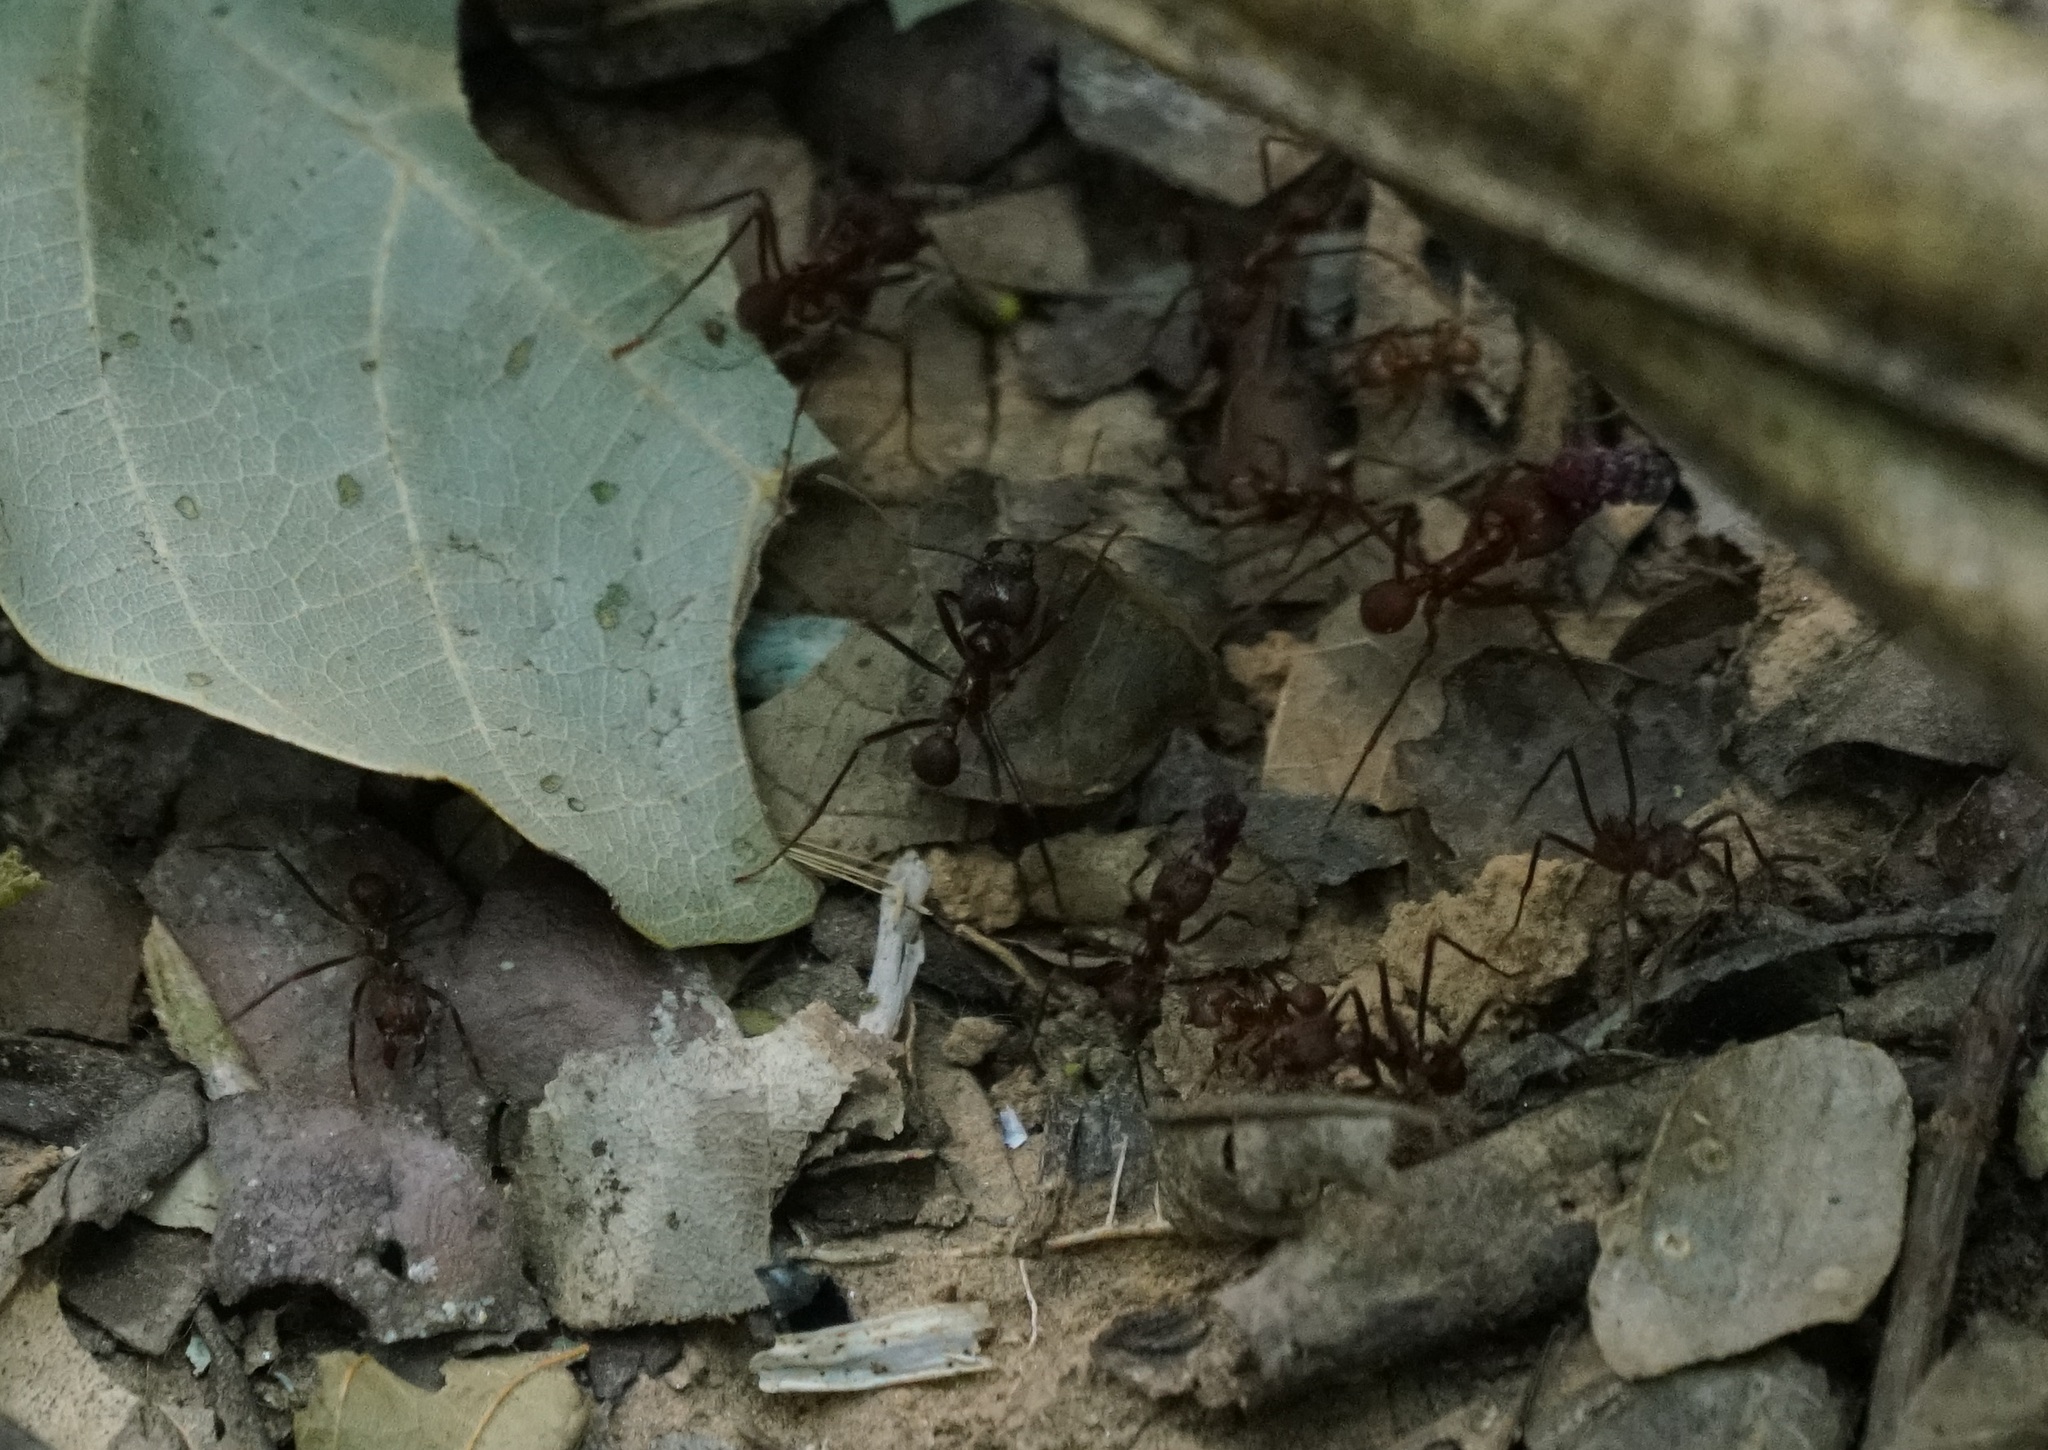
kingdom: Animalia
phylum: Arthropoda
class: Insecta
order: Hymenoptera
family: Formicidae
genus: Atta
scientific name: Atta cephalotes
